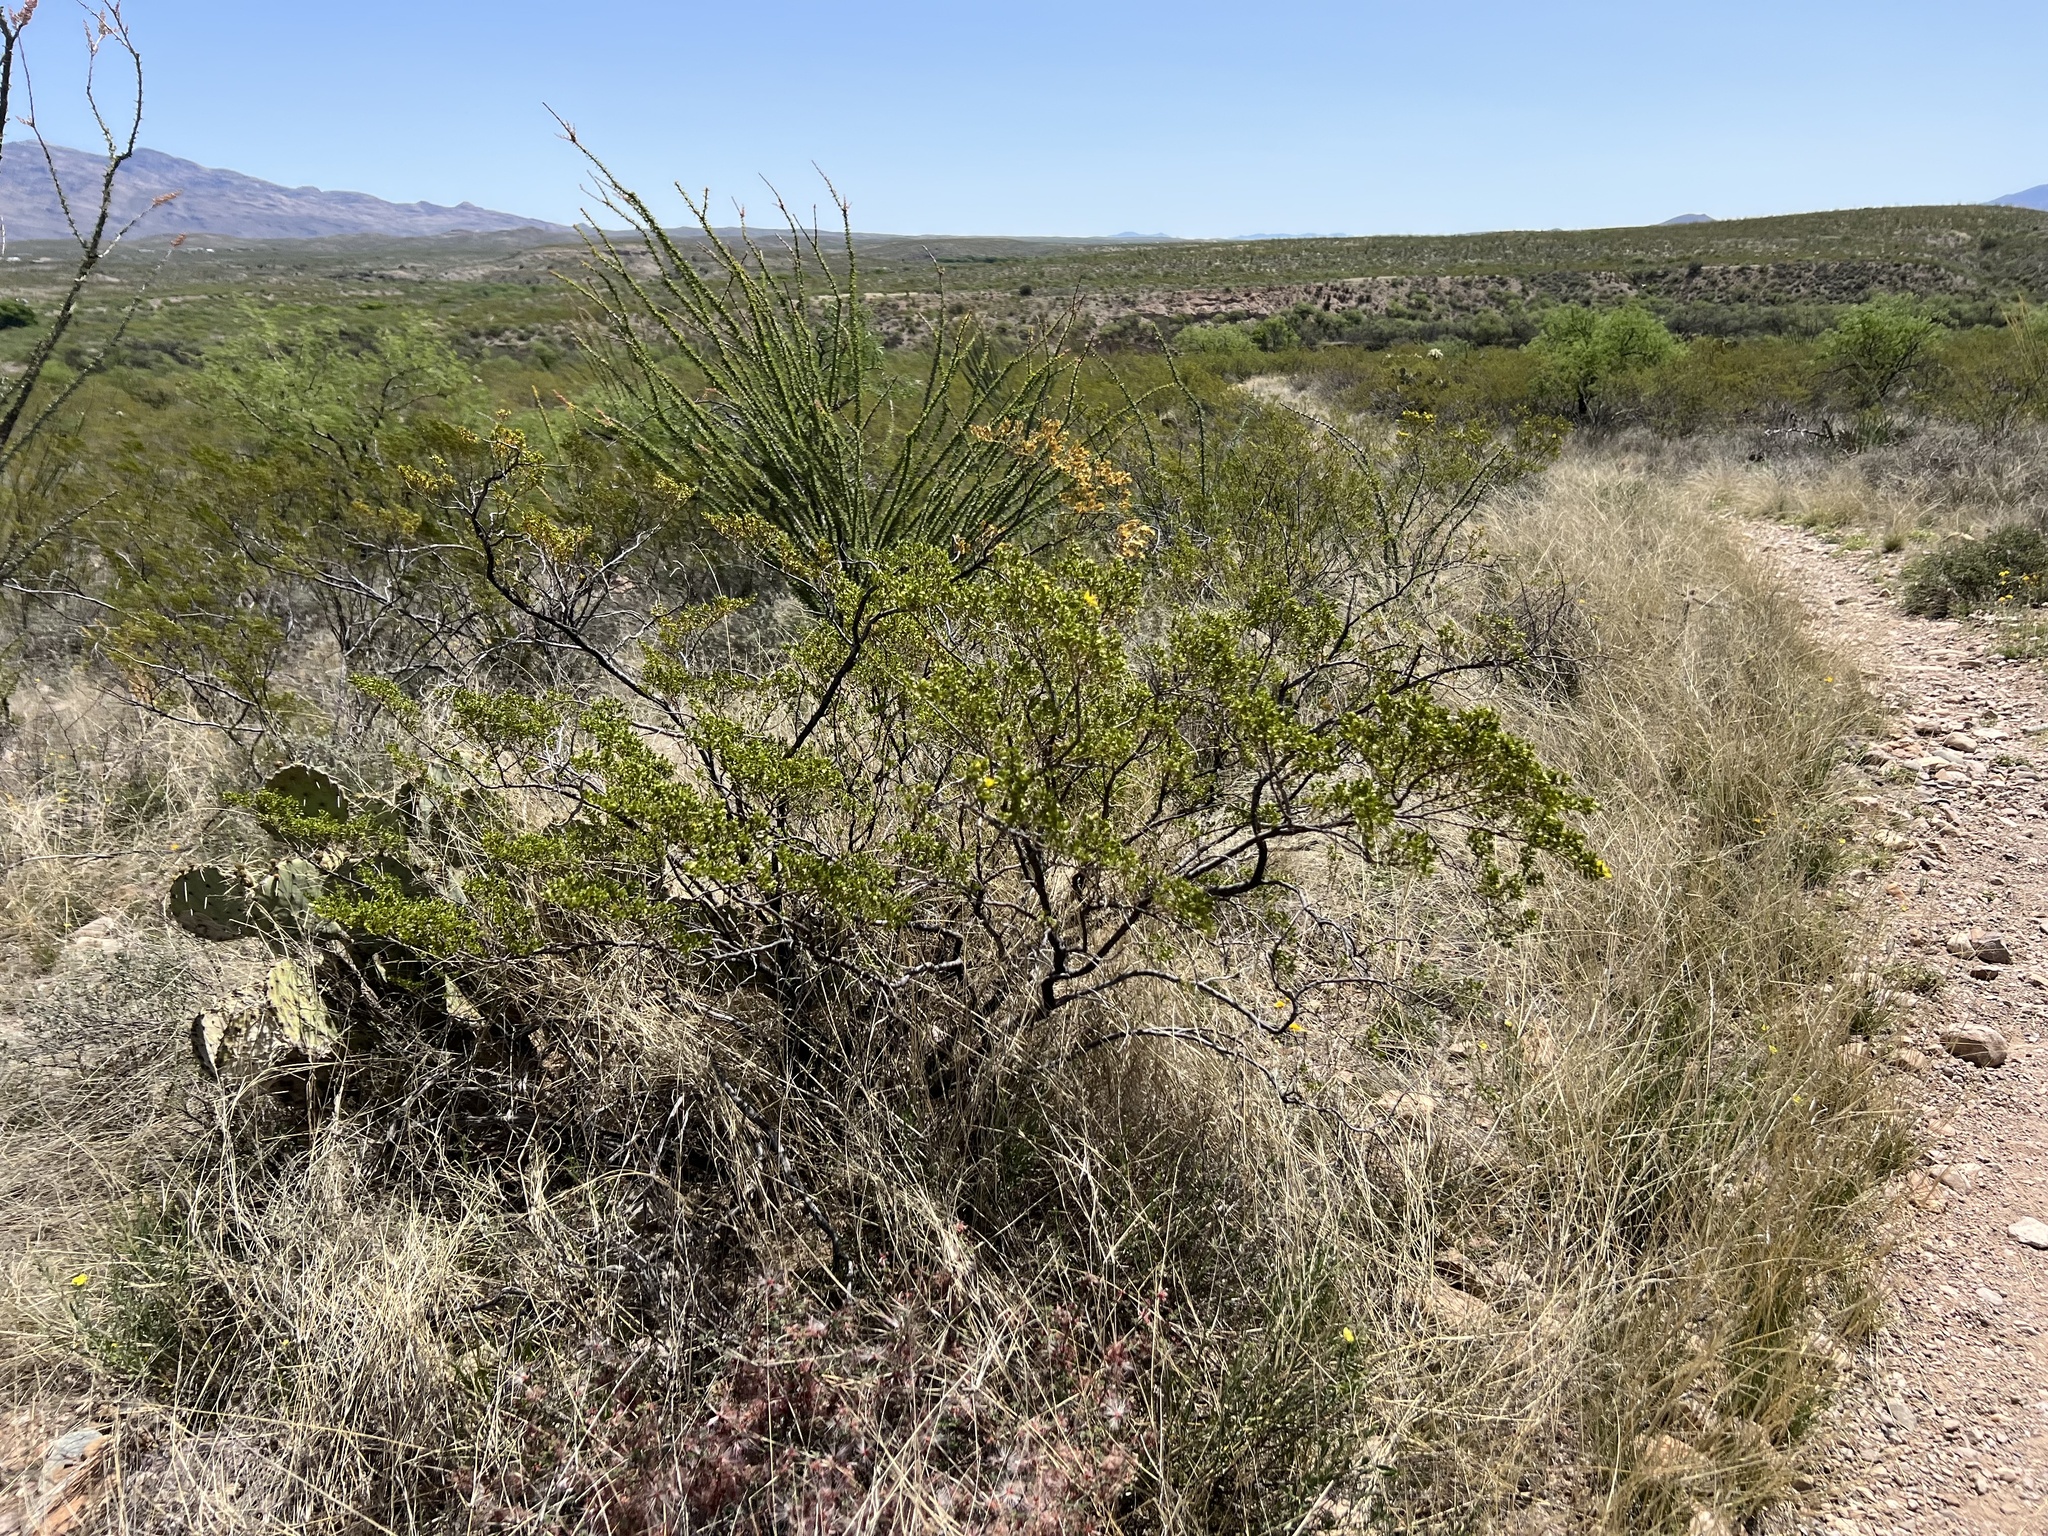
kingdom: Plantae
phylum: Tracheophyta
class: Magnoliopsida
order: Zygophyllales
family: Zygophyllaceae
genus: Larrea
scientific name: Larrea tridentata
